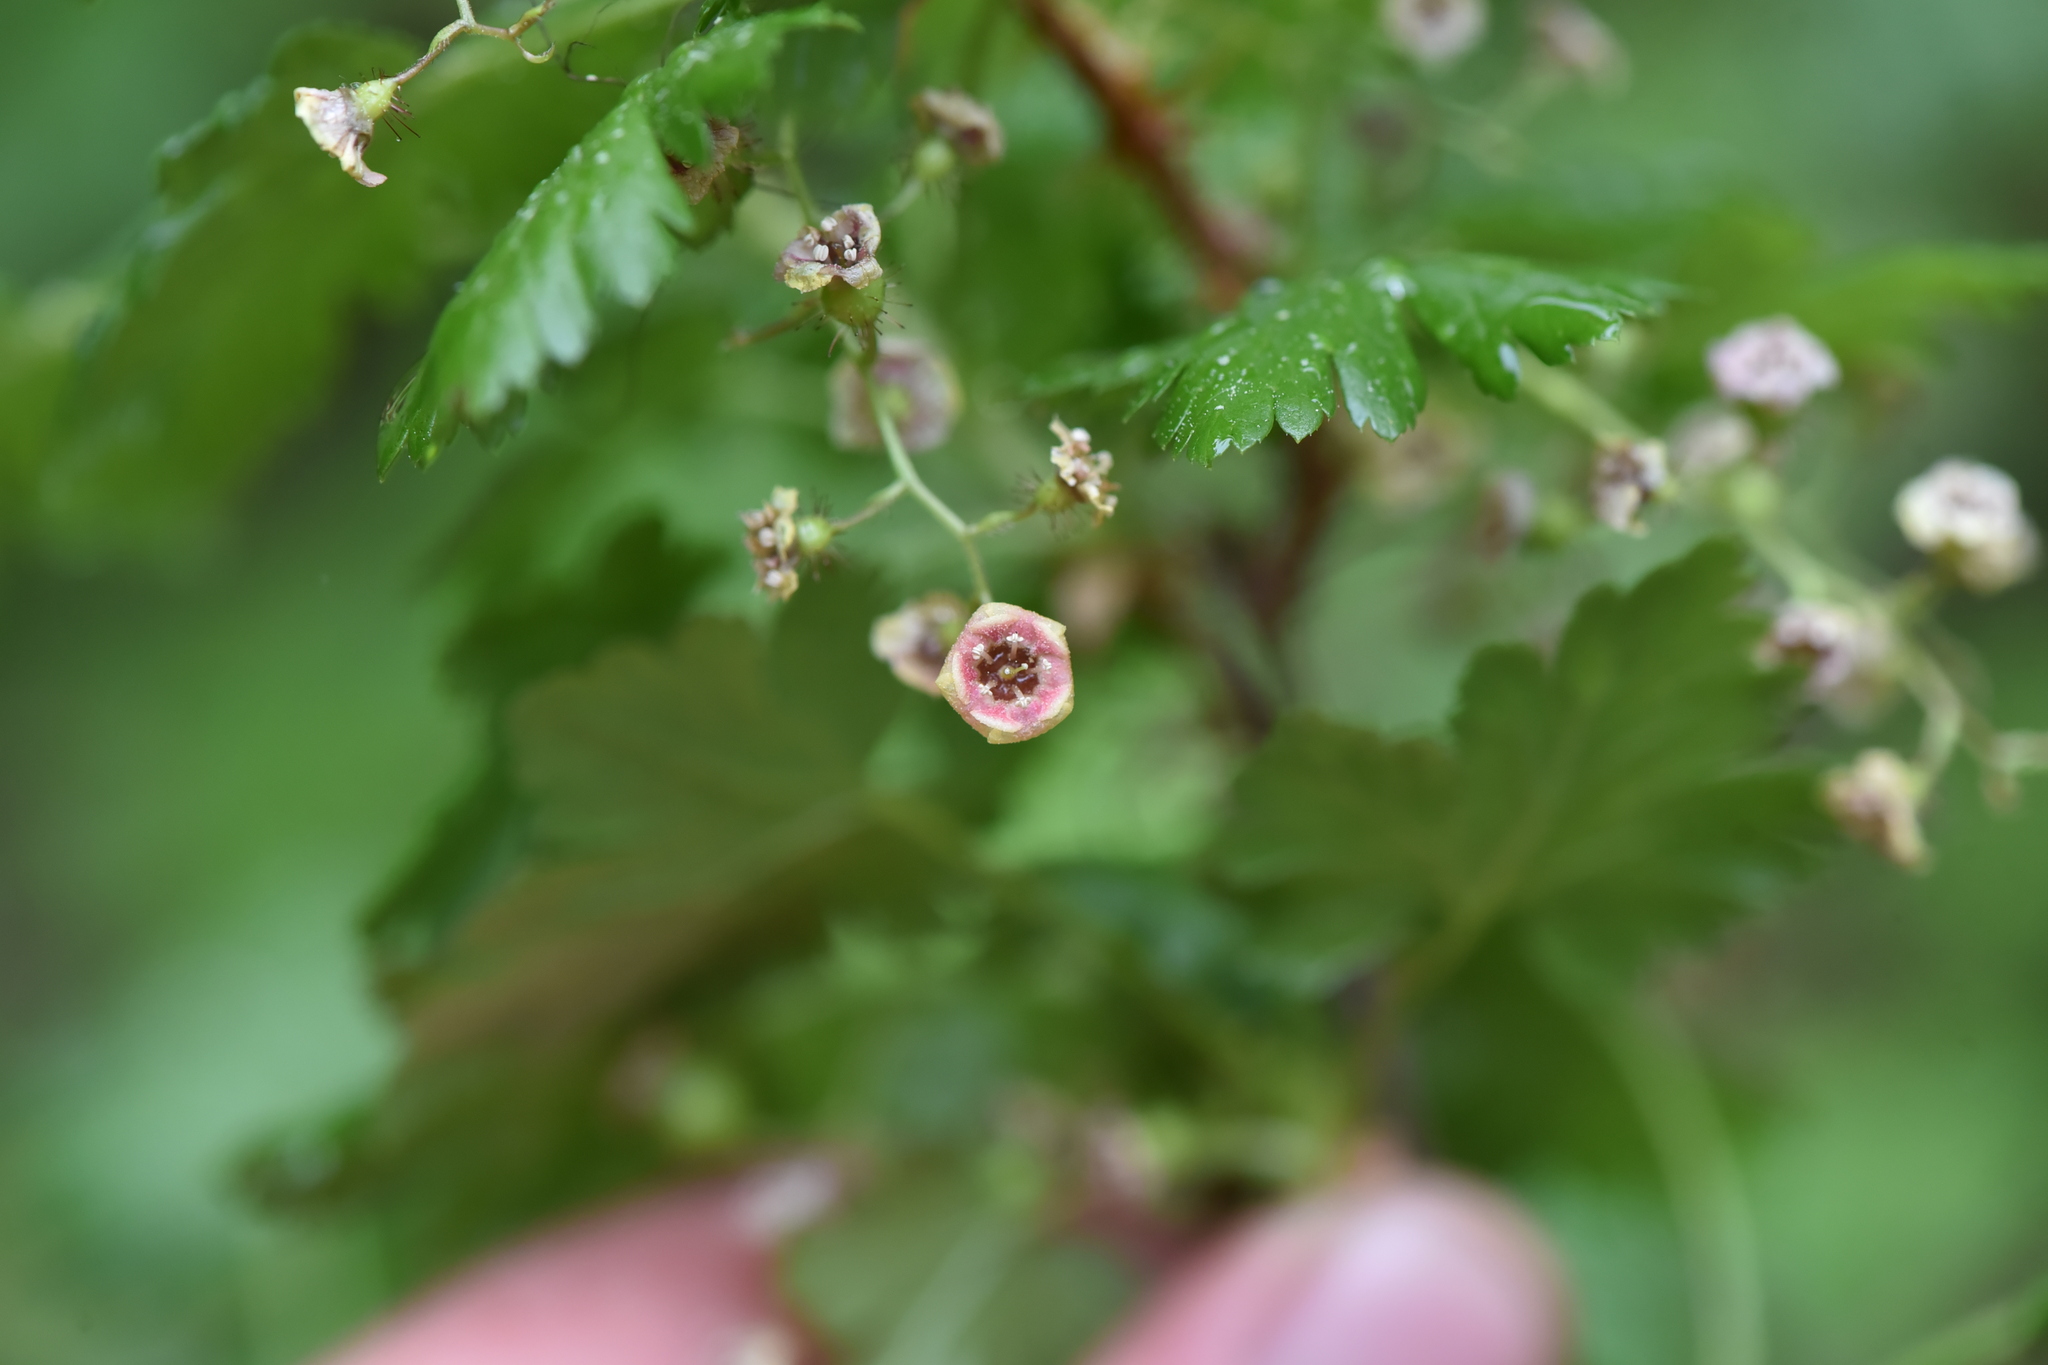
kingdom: Plantae
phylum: Tracheophyta
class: Magnoliopsida
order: Saxifragales
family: Grossulariaceae
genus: Ribes
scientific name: Ribes lacustre
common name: Black gooseberry
